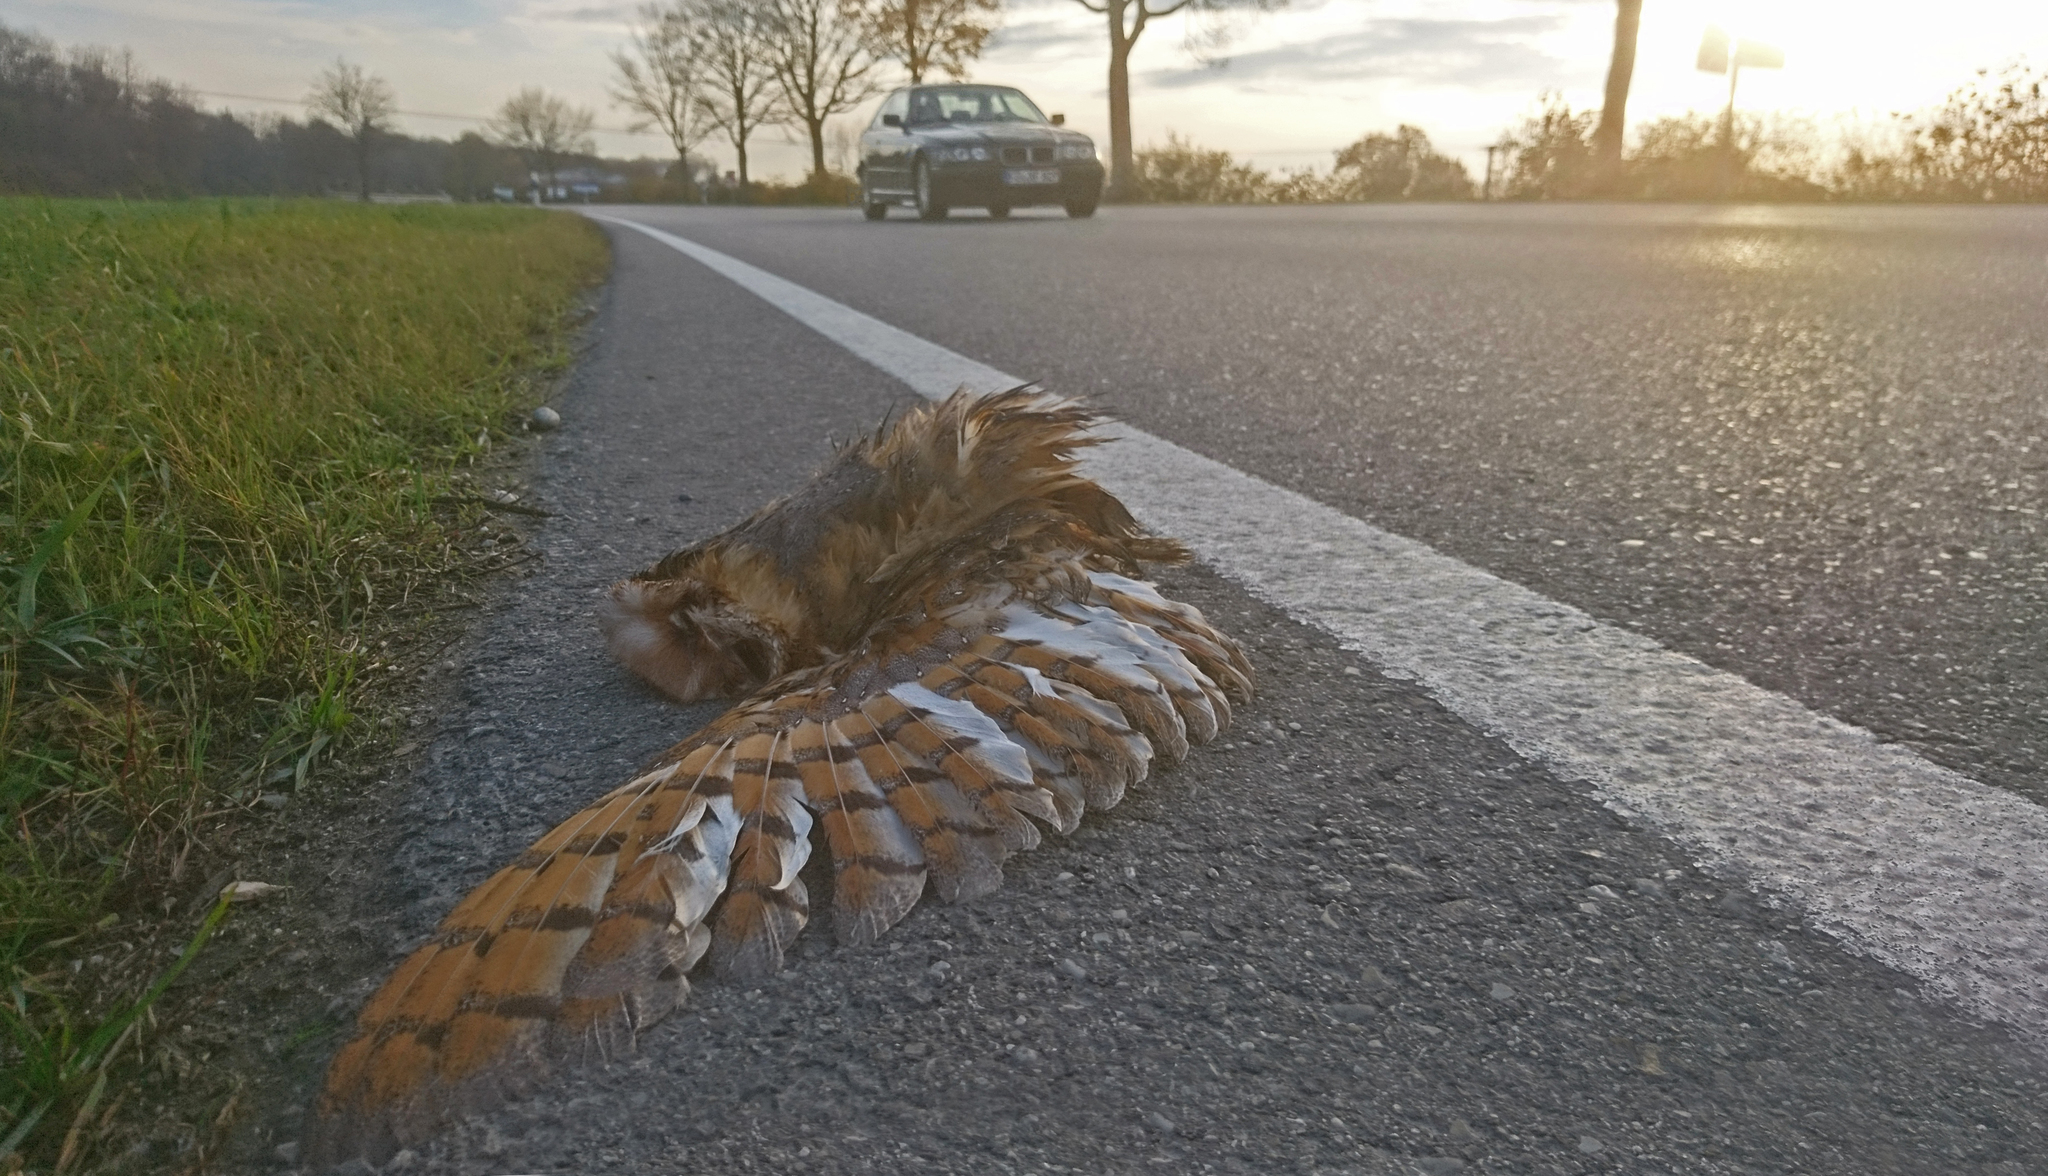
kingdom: Animalia
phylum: Chordata
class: Aves
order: Strigiformes
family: Tytonidae
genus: Tyto
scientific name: Tyto alba
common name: Barn owl
